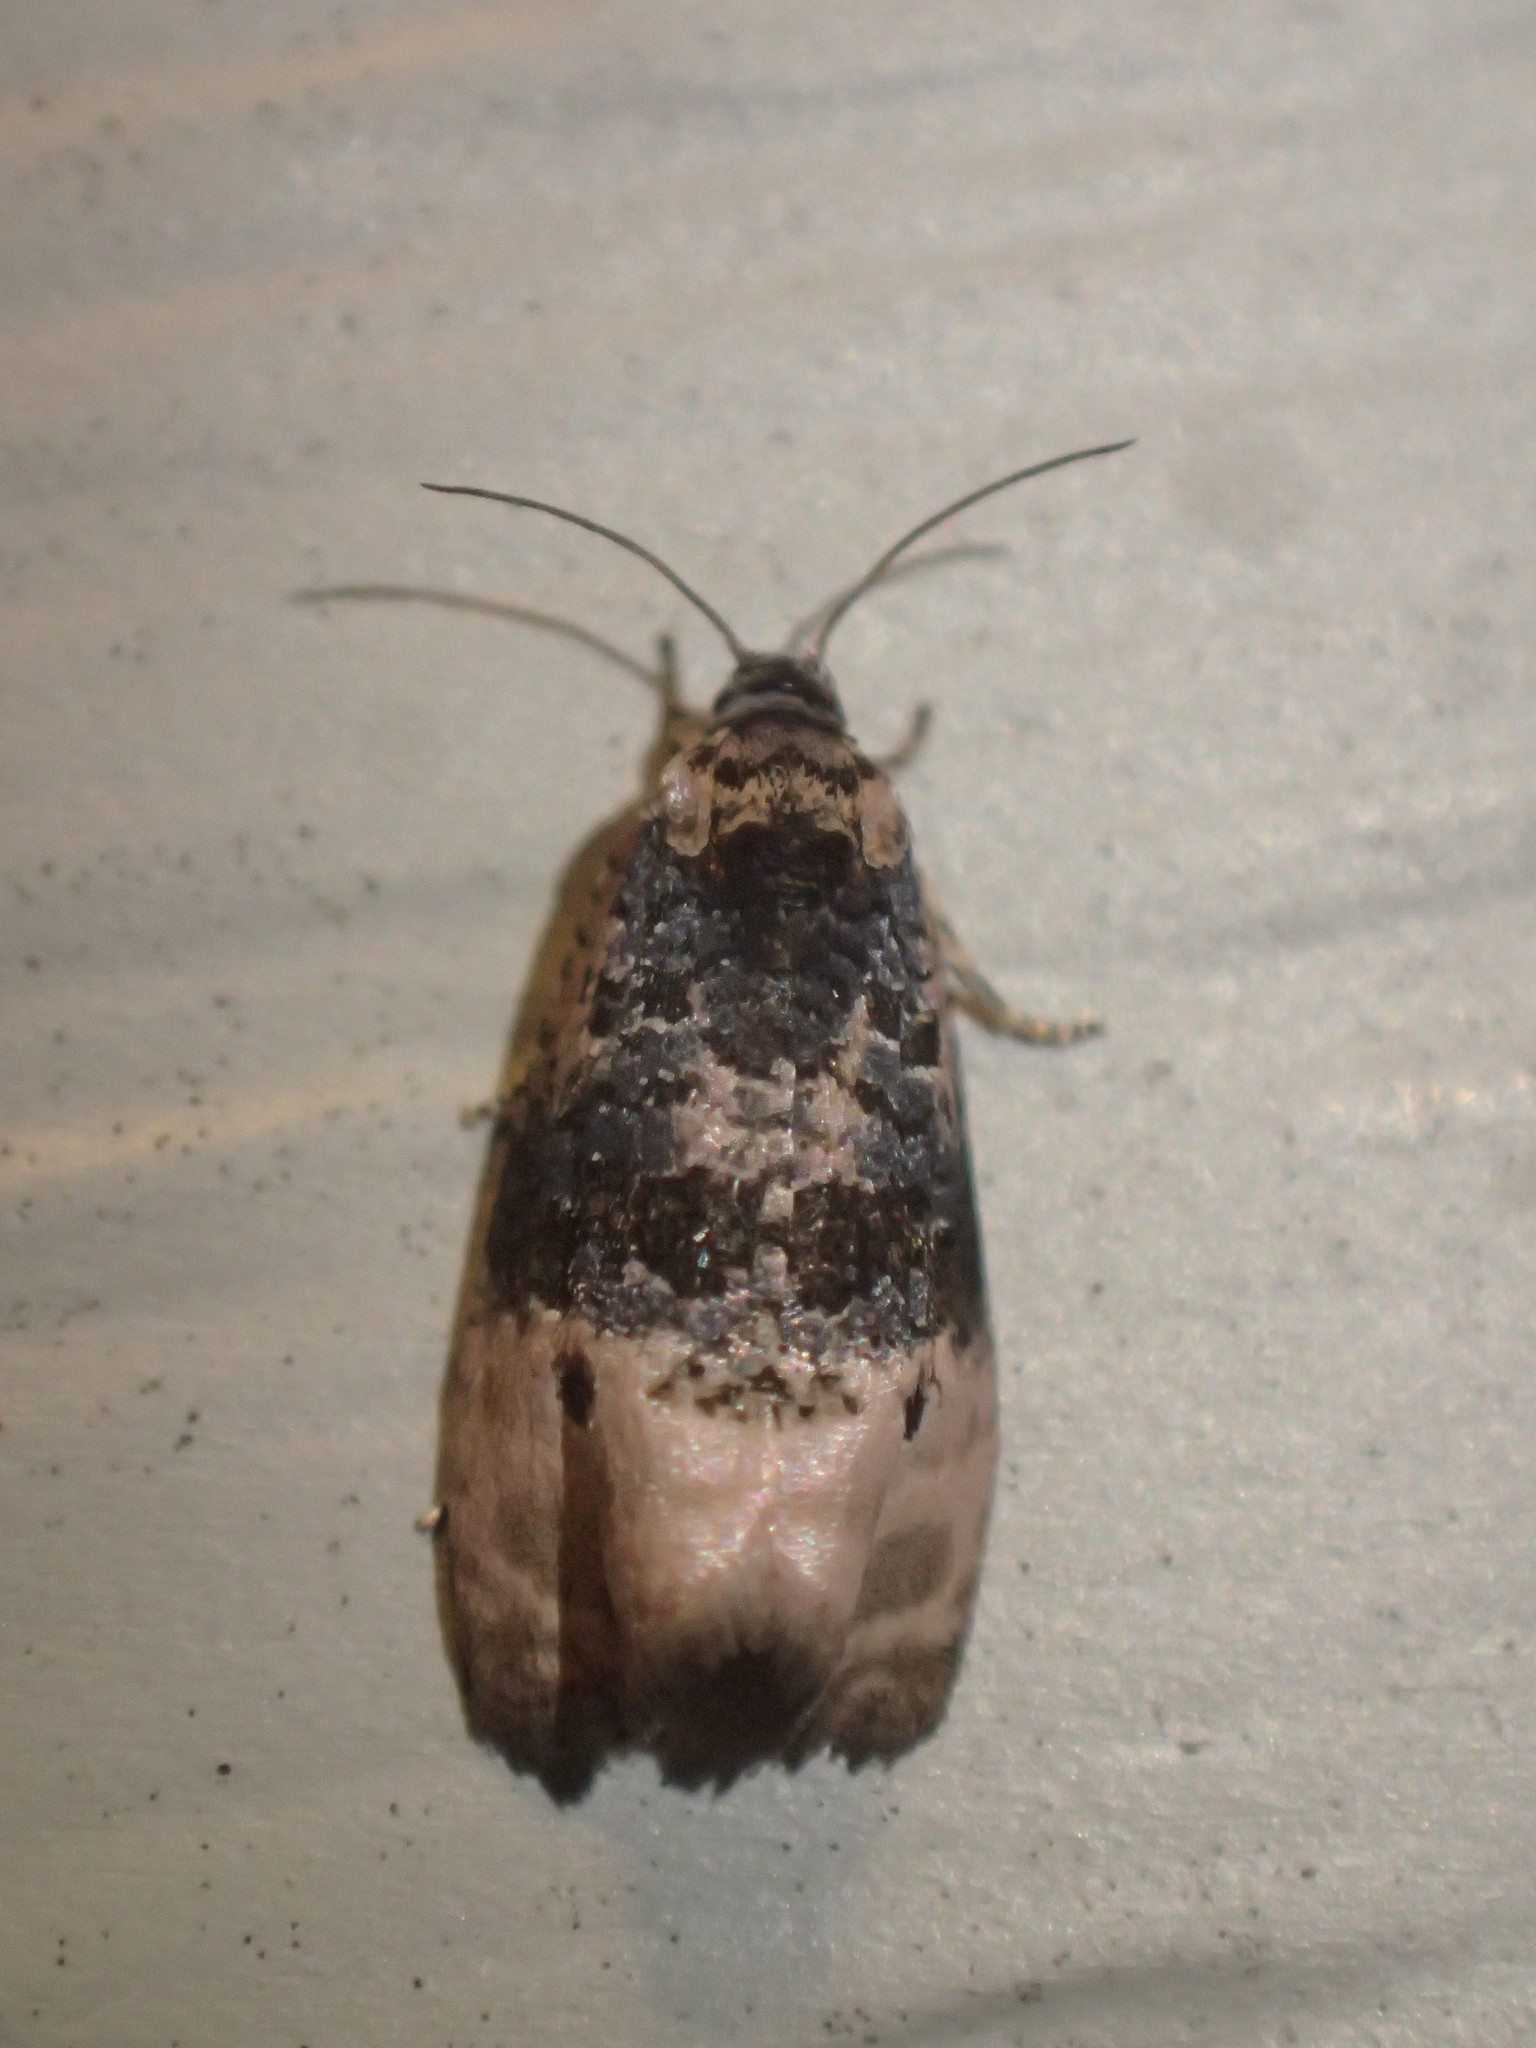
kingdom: Animalia
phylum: Arthropoda
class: Insecta
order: Lepidoptera
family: Tortricidae
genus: Hedya
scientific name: Hedya separatana
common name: Pink-washed leafroller moth
